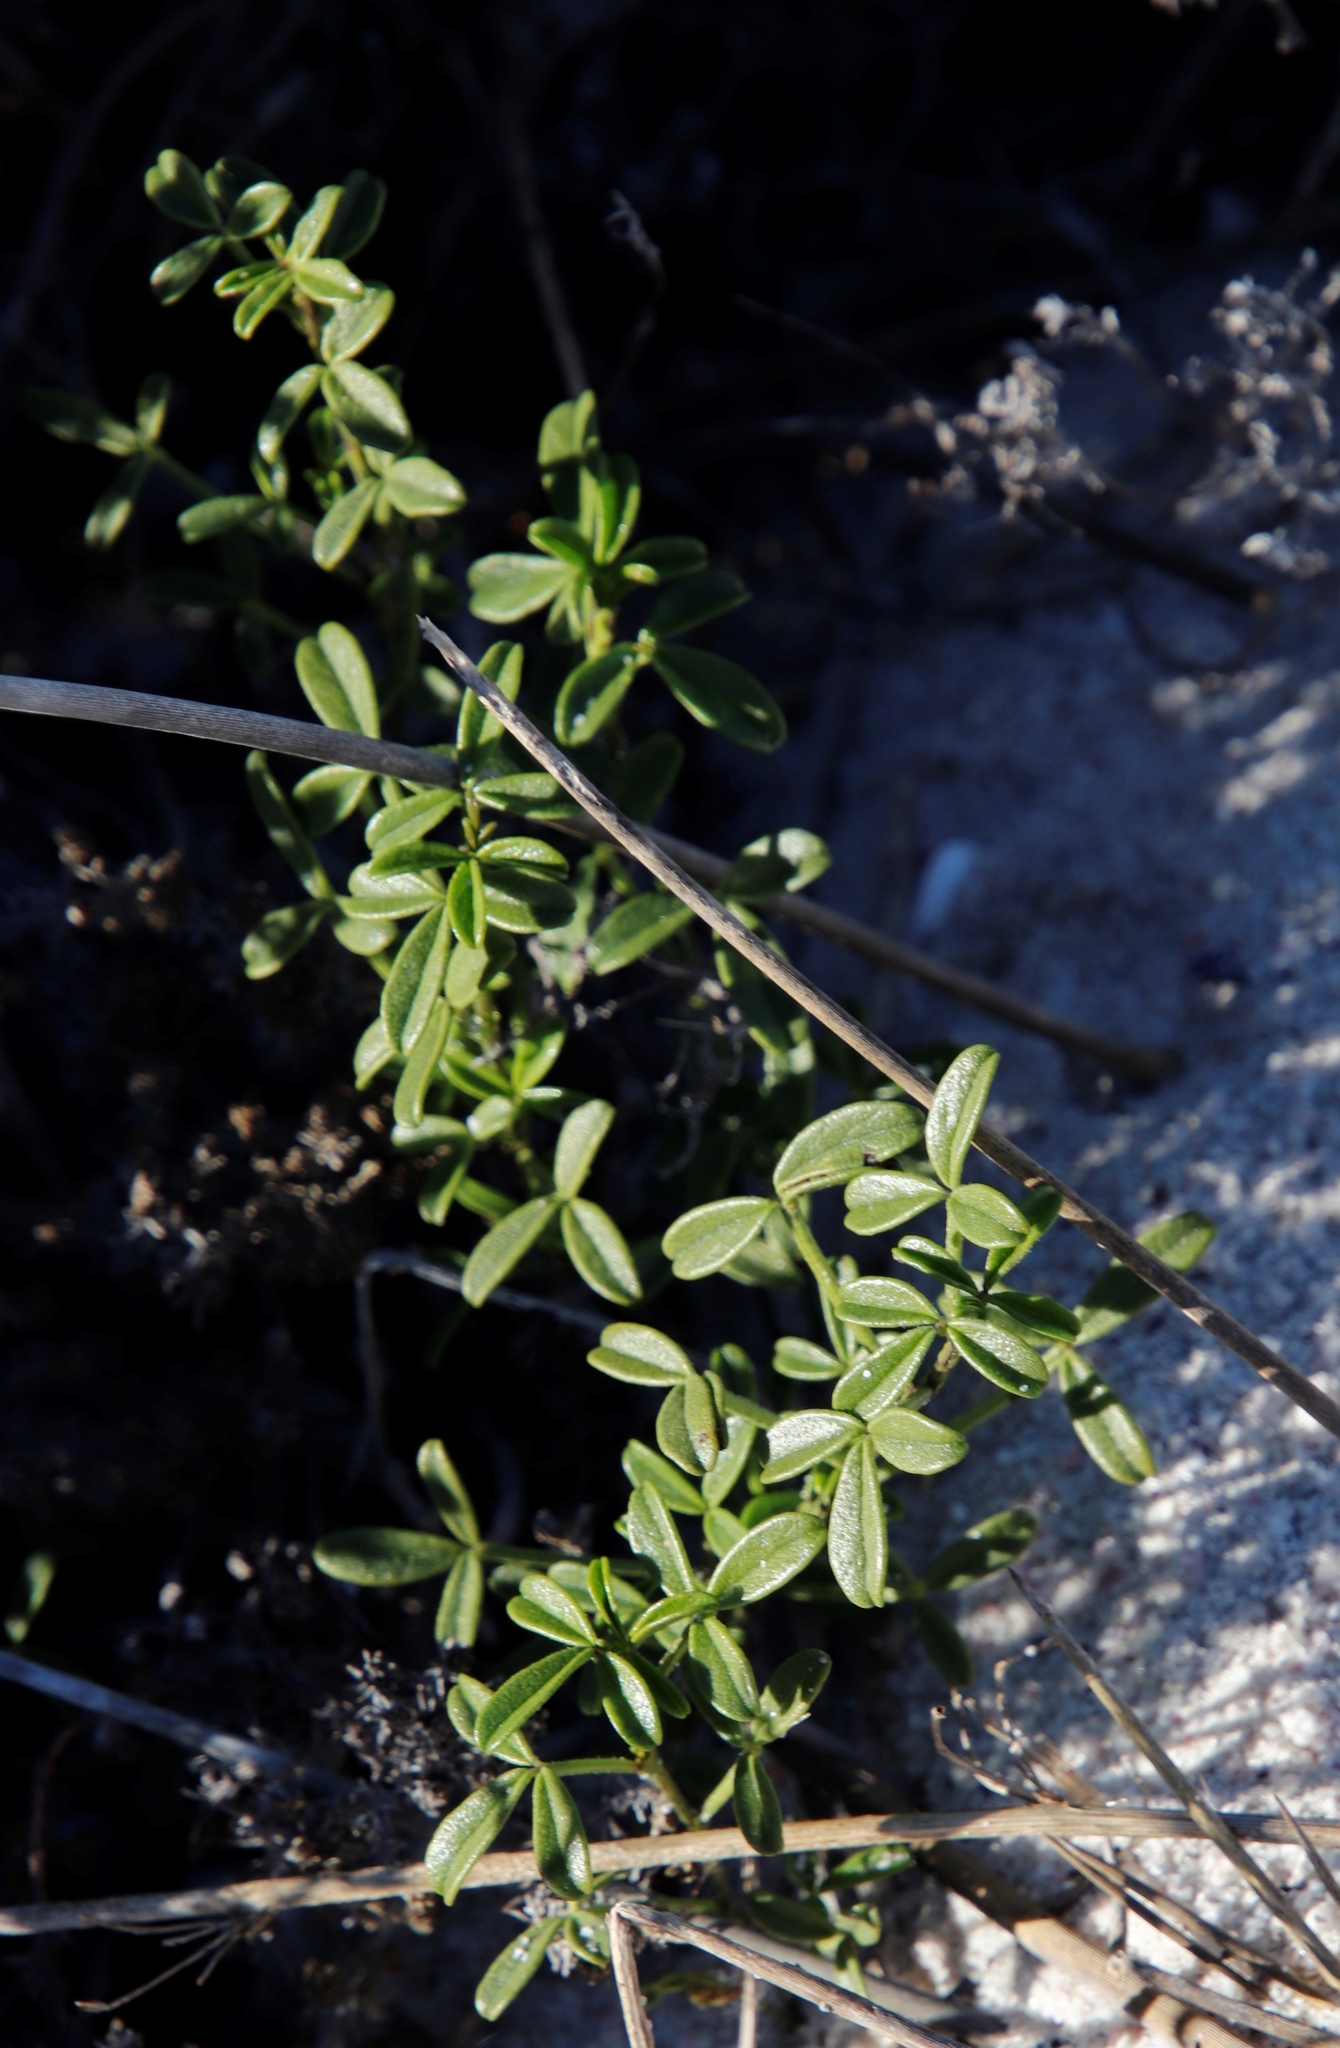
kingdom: Plantae
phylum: Tracheophyta
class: Magnoliopsida
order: Fabales
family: Fabaceae
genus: Psoralea
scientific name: Psoralea repens
